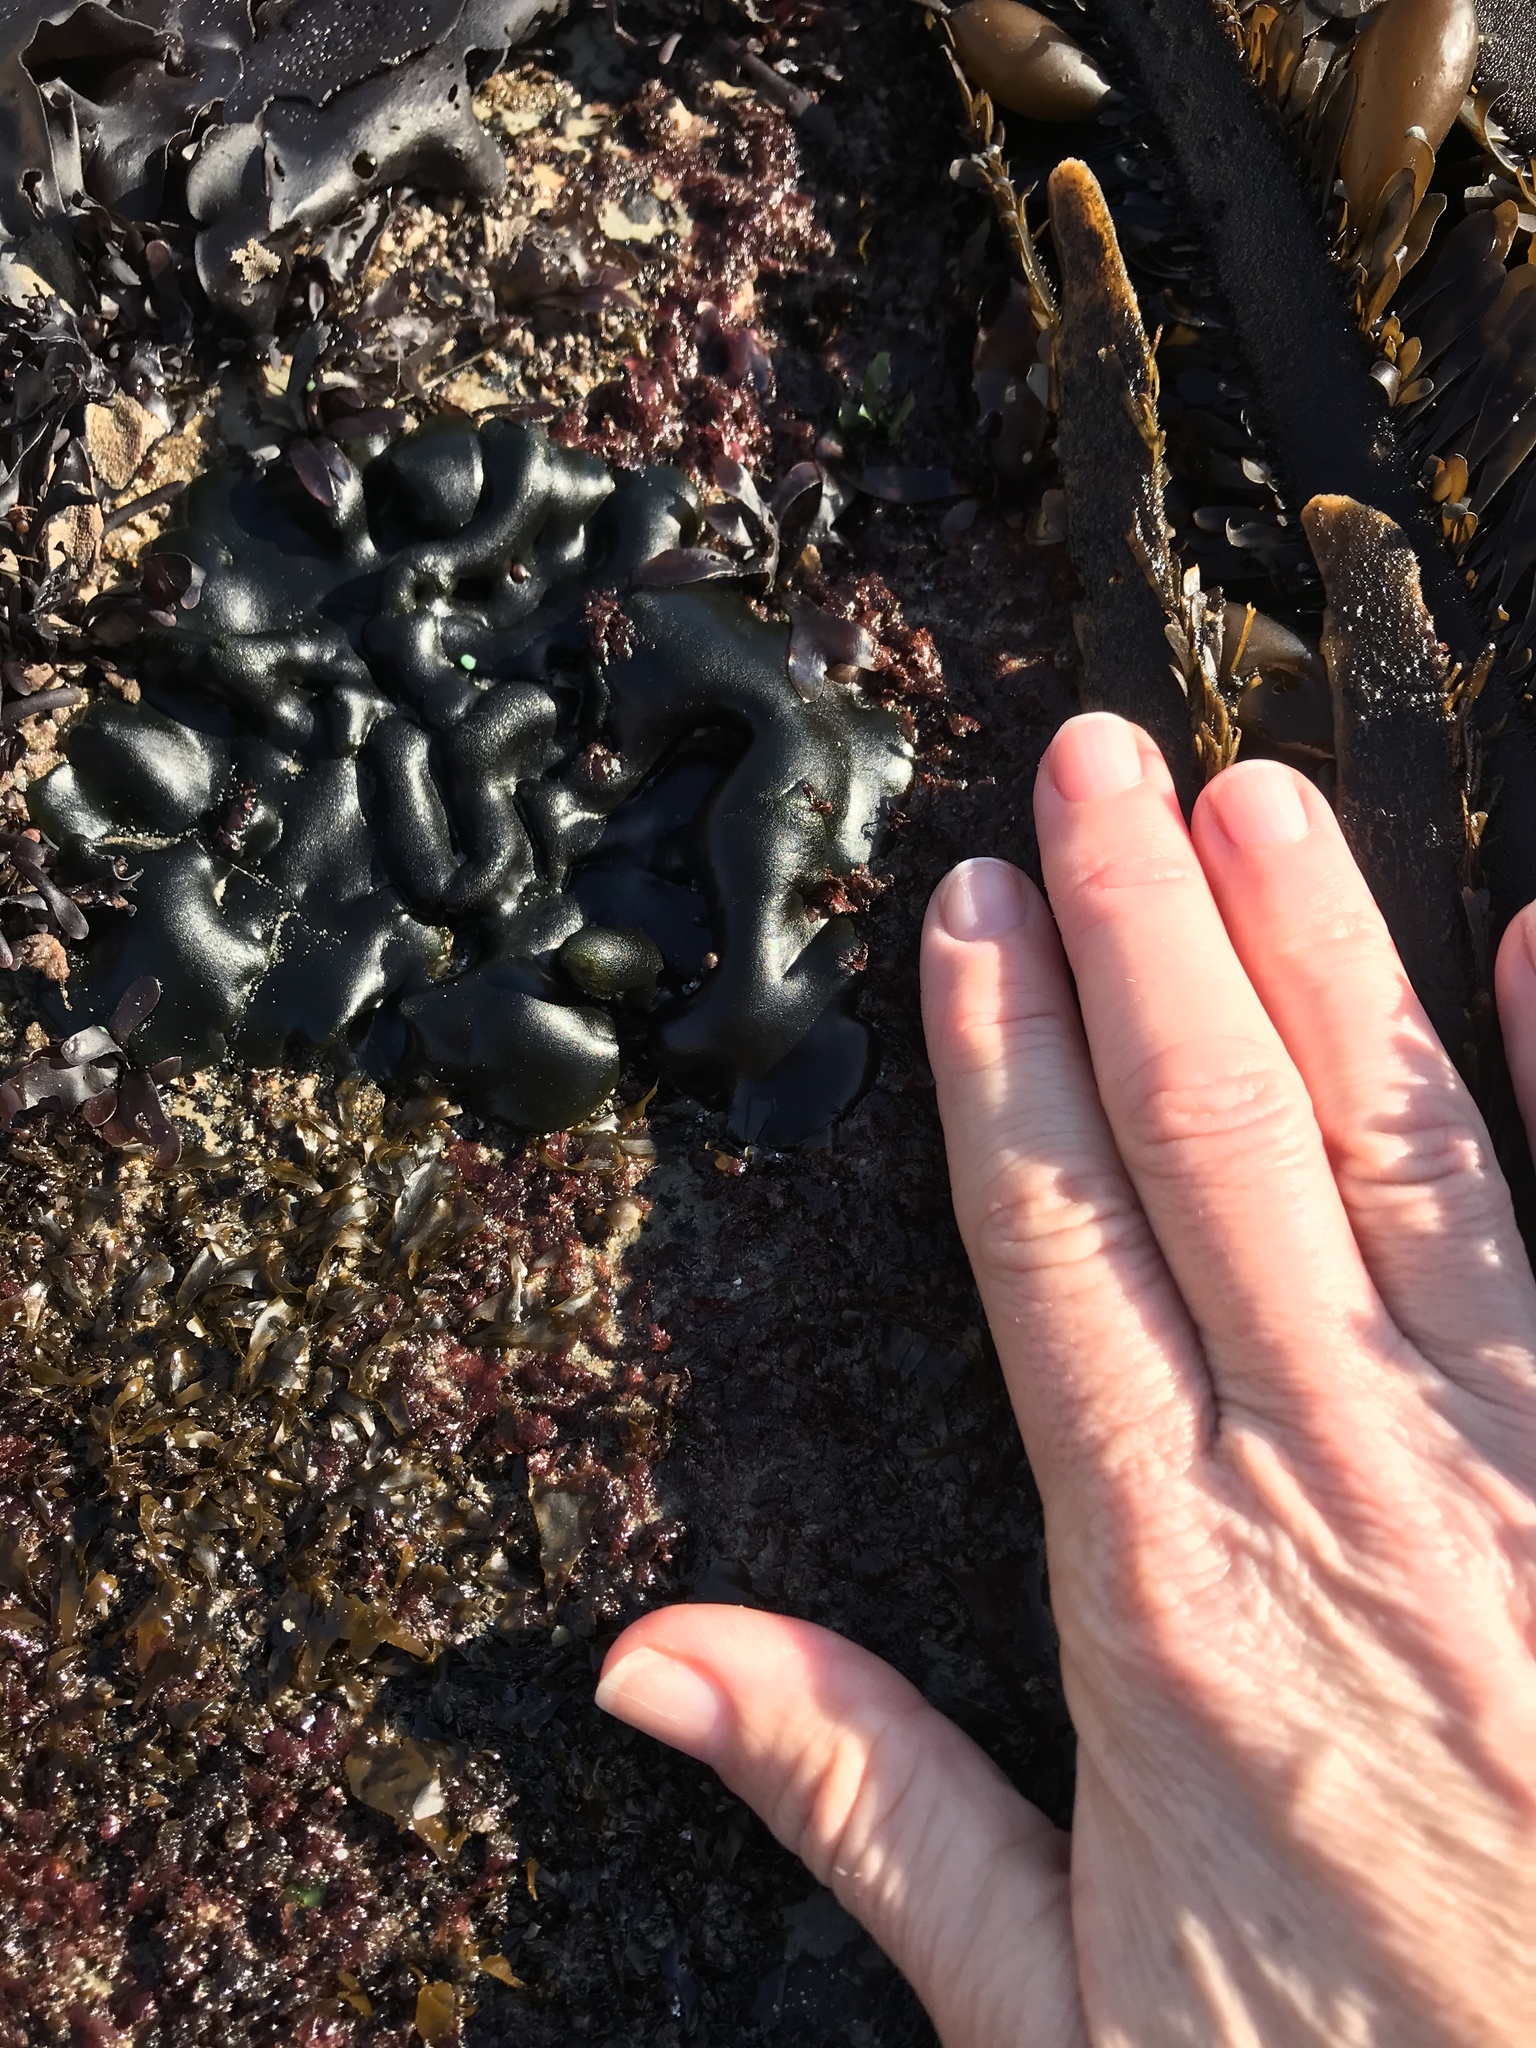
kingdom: Plantae
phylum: Chlorophyta
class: Ulvophyceae
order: Bryopsidales
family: Codiaceae
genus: Codium
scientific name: Codium setchellii
